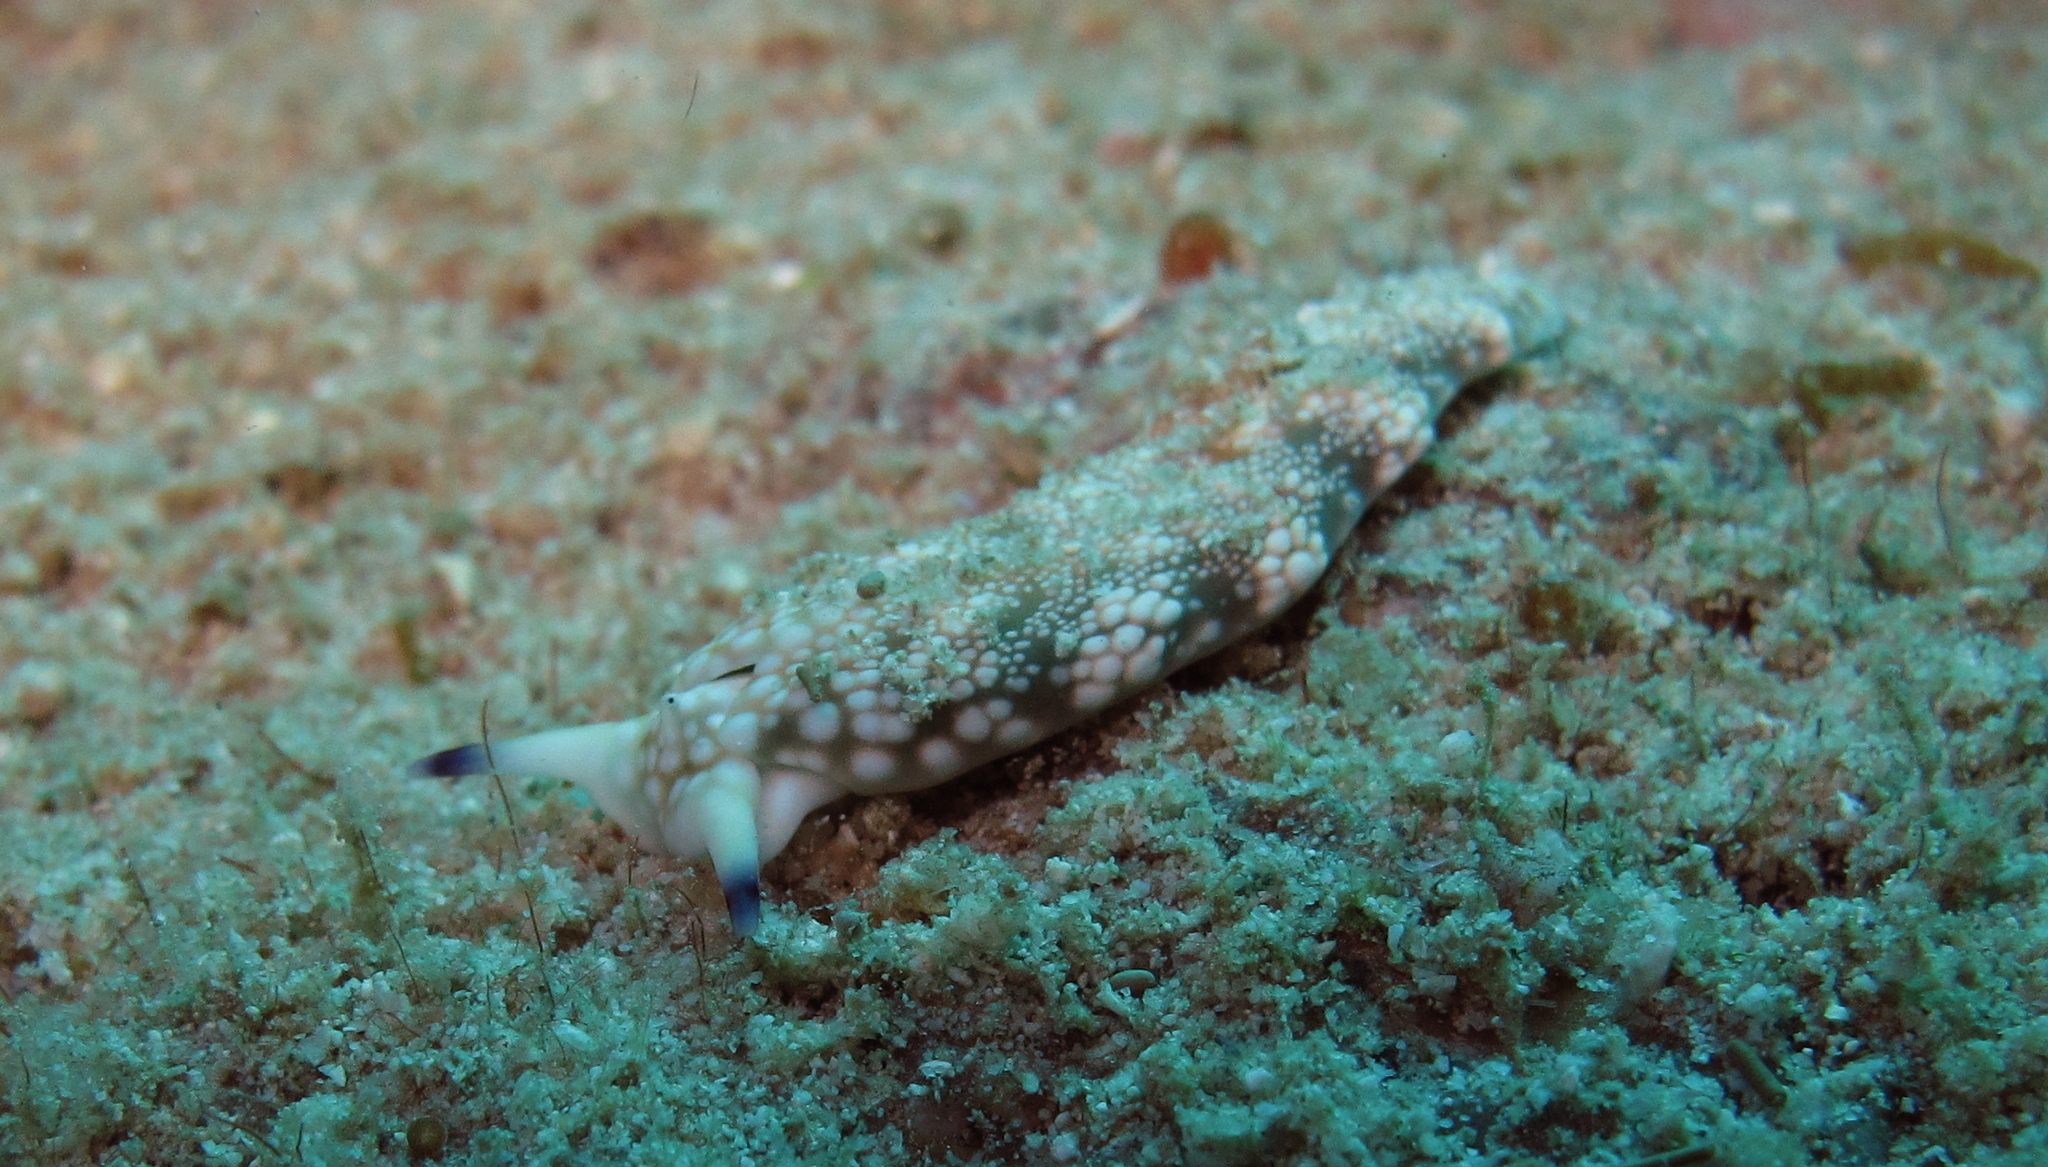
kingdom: Animalia
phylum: Mollusca
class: Gastropoda
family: Plakobranchidae
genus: Plakobranchus
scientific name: Plakobranchus papua
